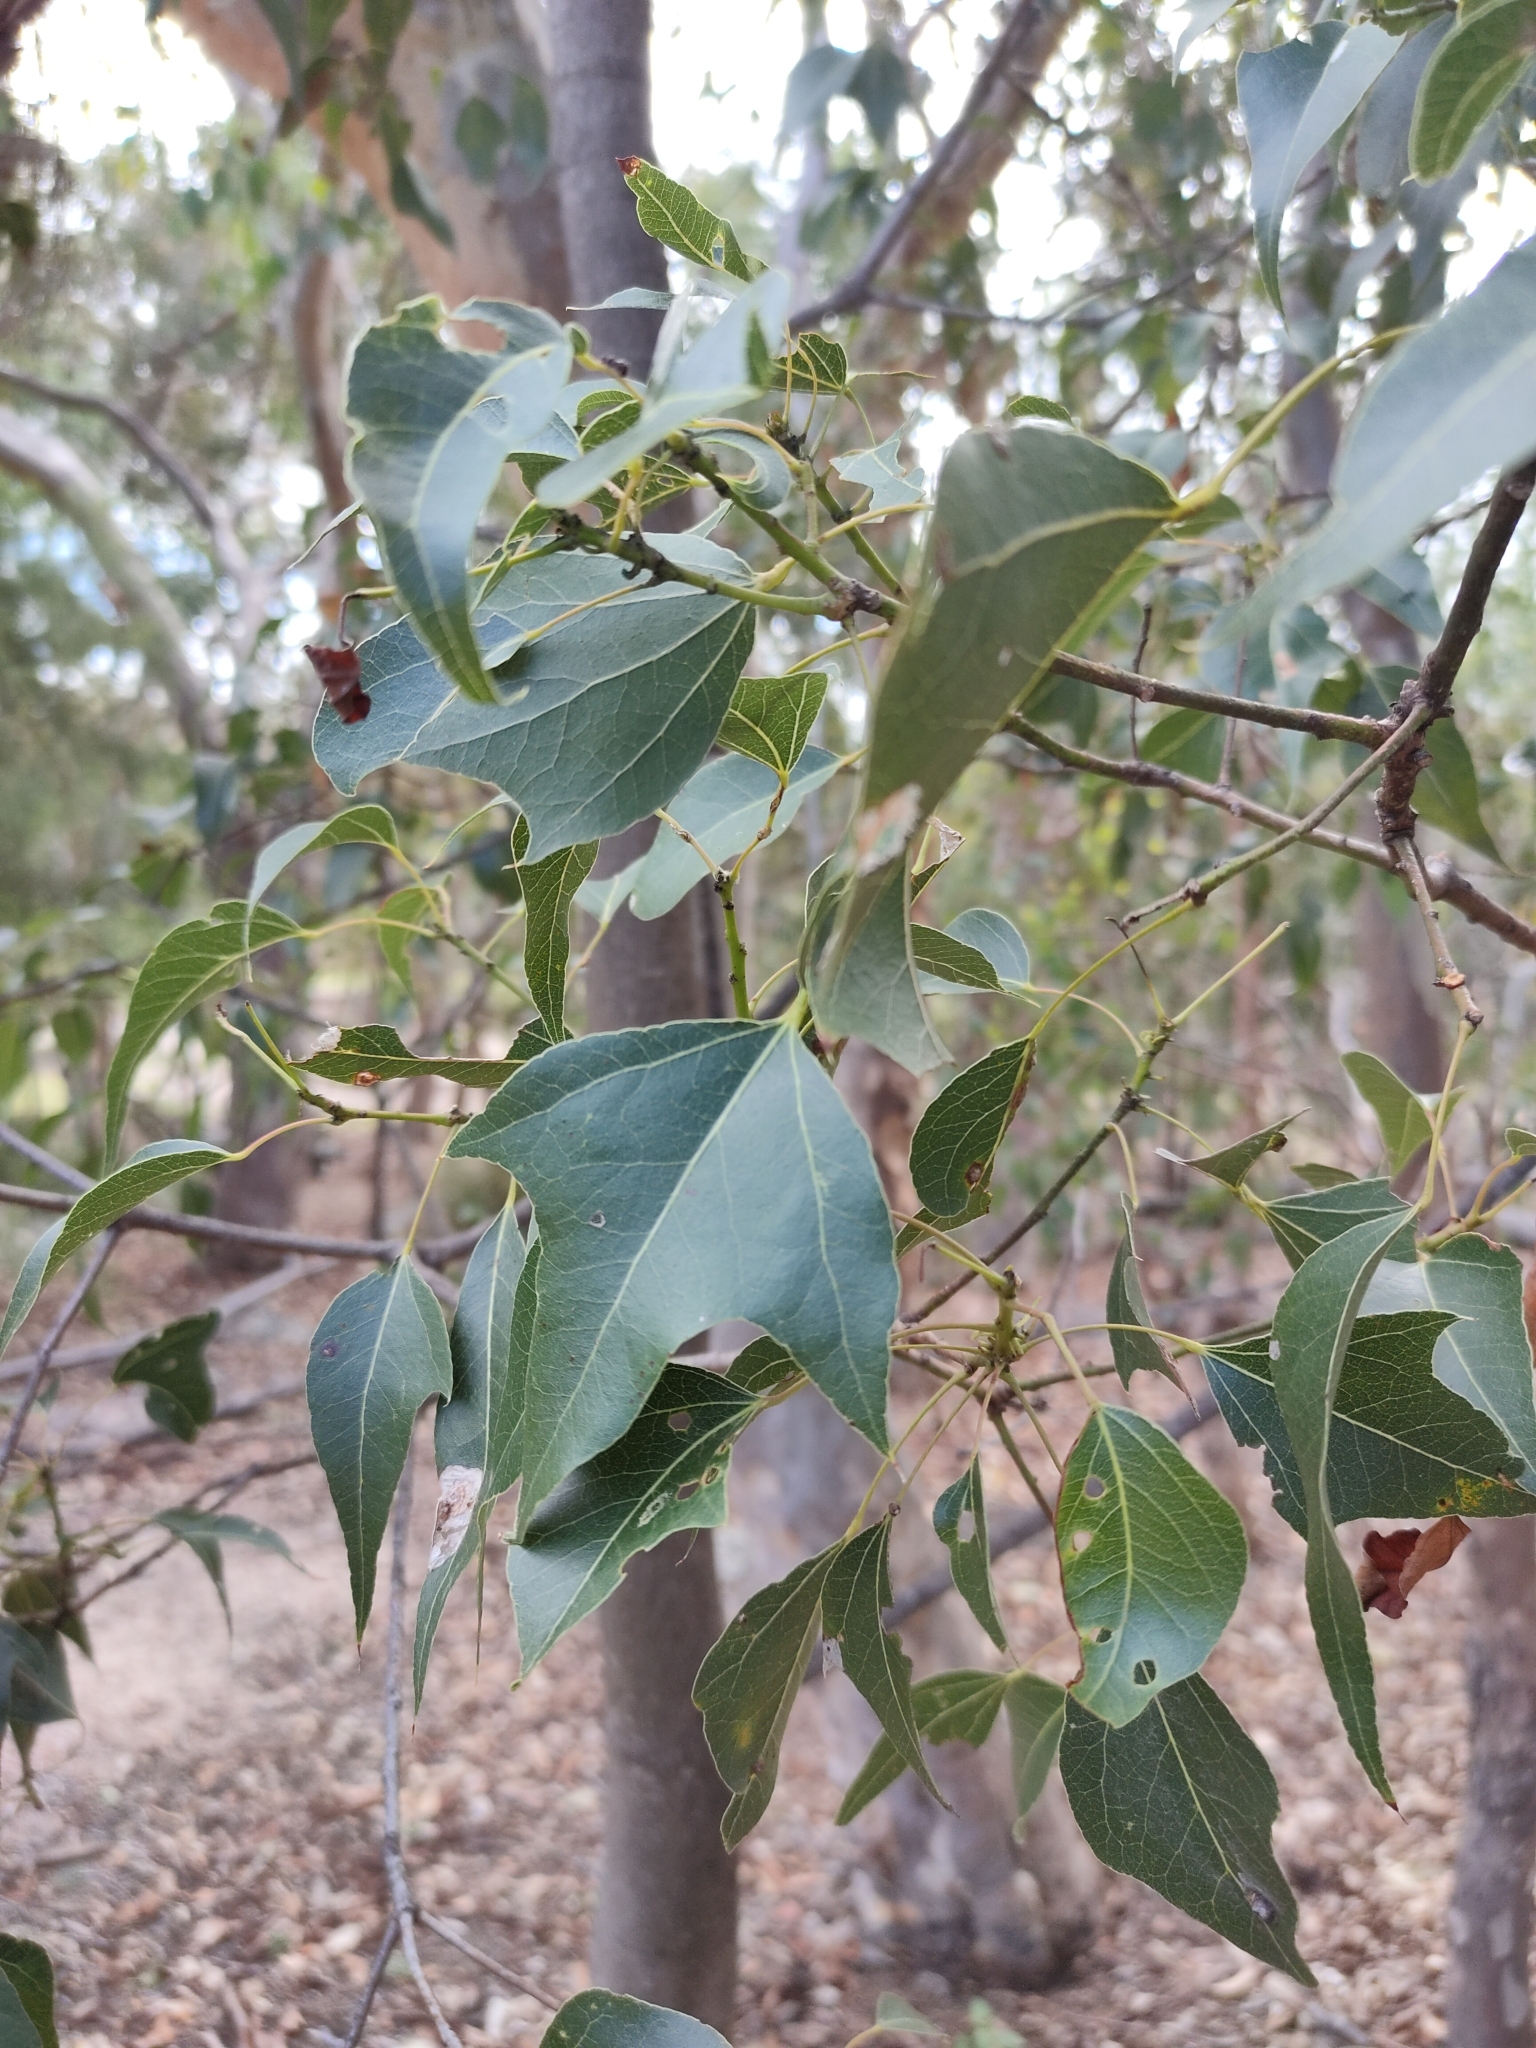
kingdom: Plantae
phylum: Tracheophyta
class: Magnoliopsida
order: Malvales
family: Malvaceae
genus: Brachychiton
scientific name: Brachychiton populneus
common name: Kurrajong
